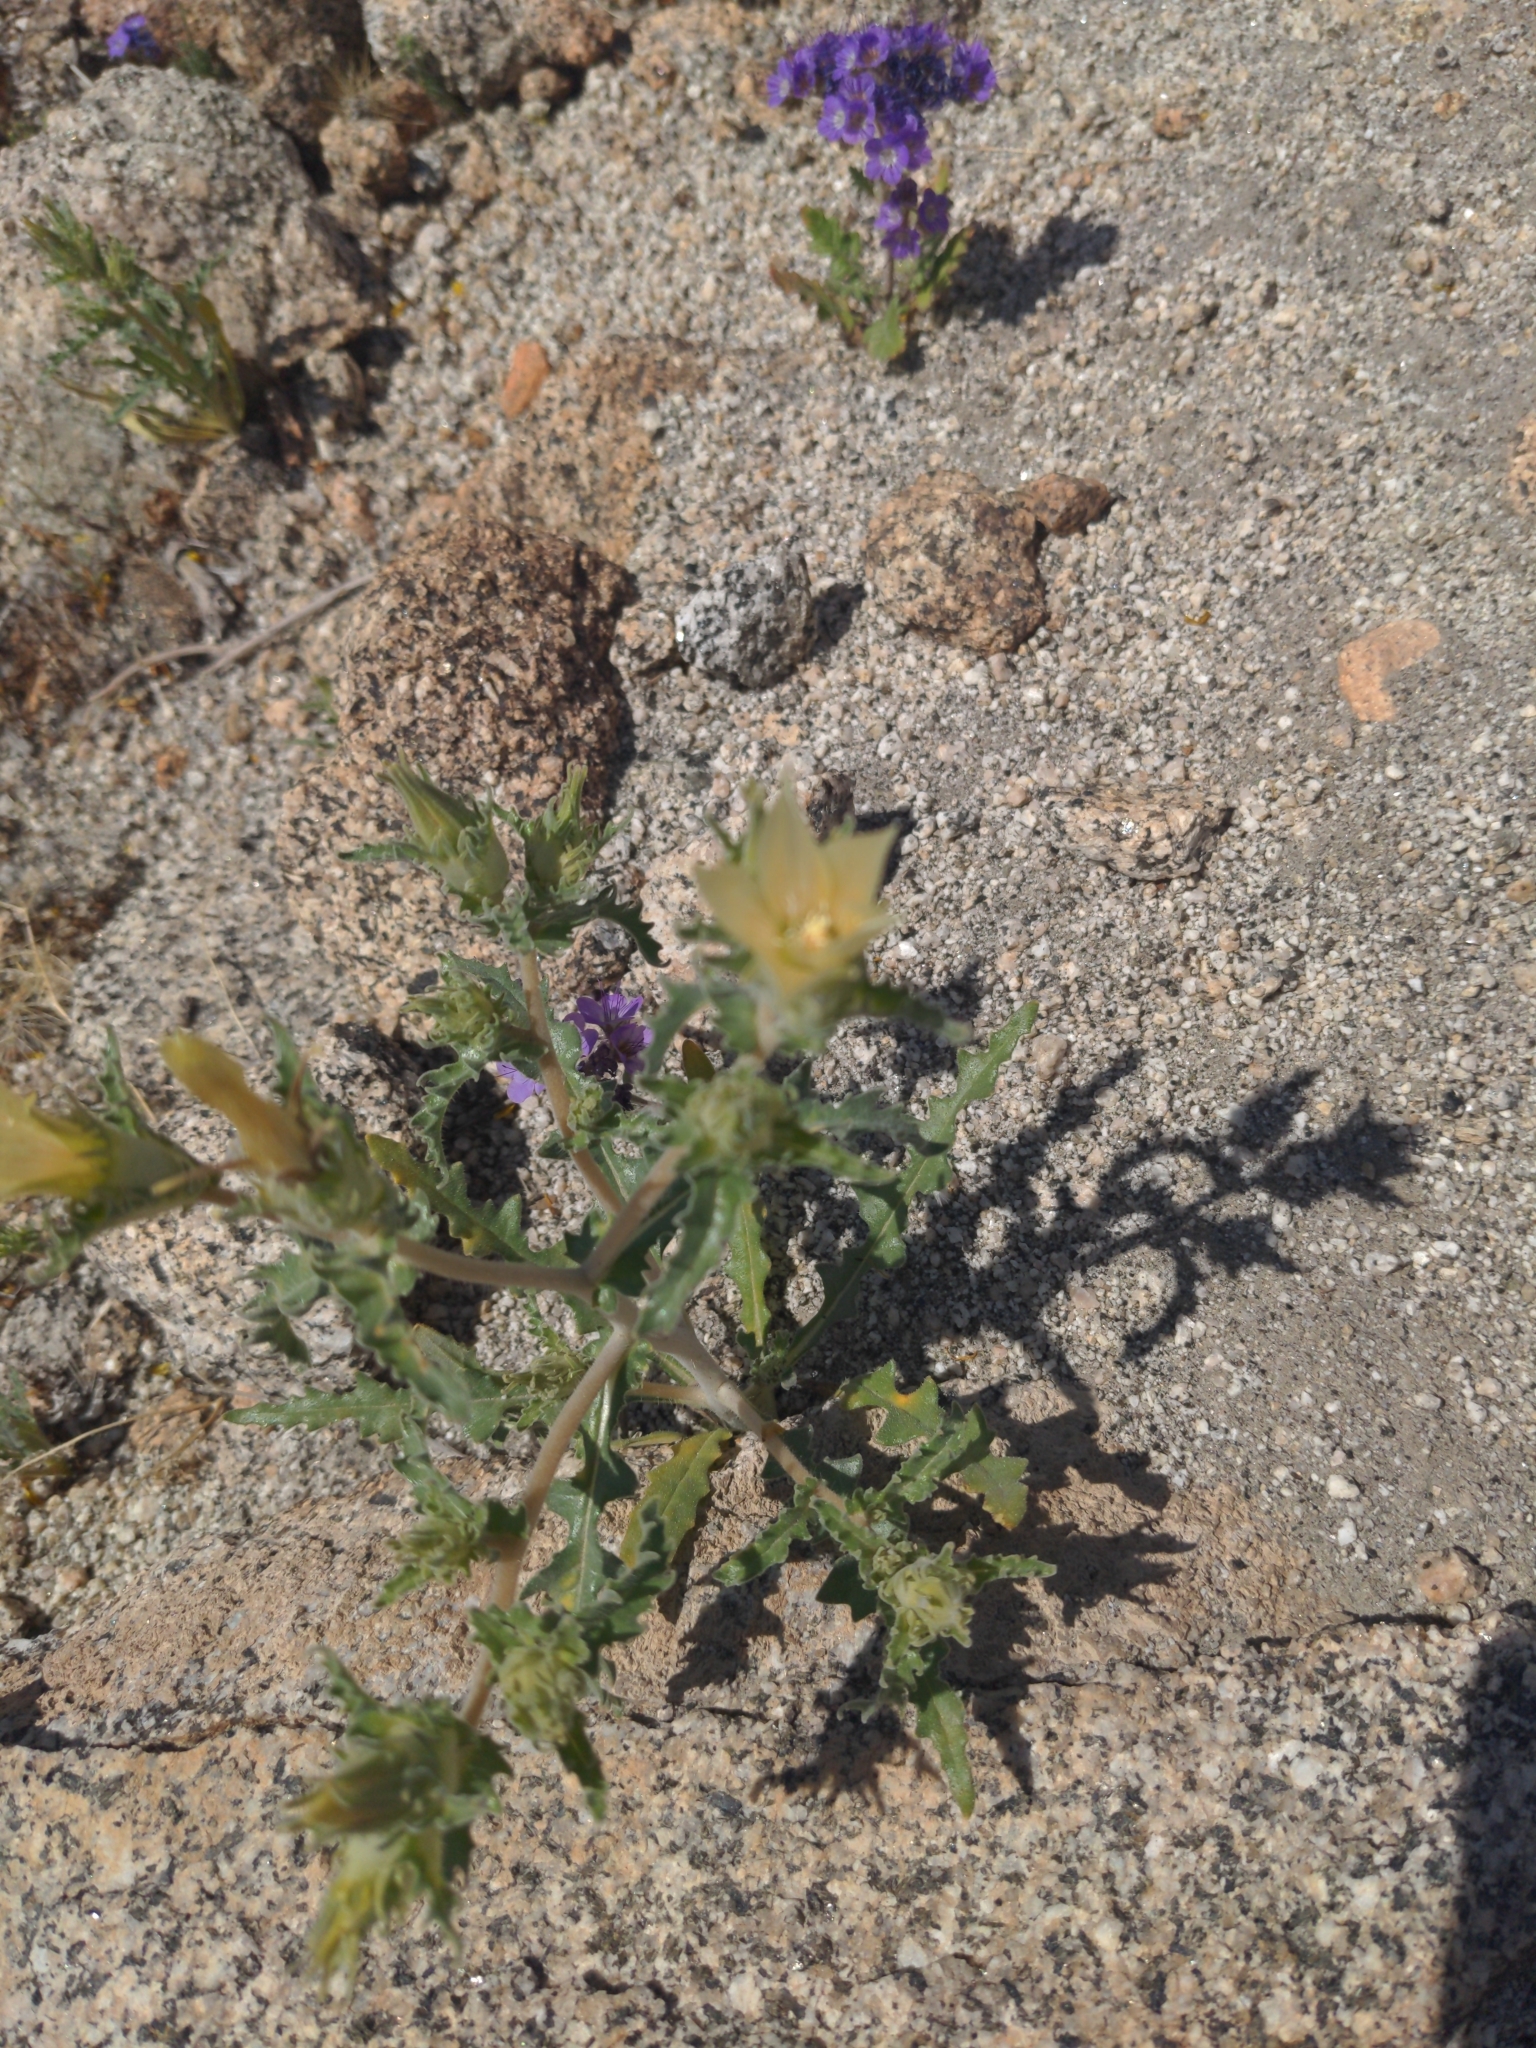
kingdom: Plantae
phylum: Tracheophyta
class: Magnoliopsida
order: Cornales
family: Loasaceae
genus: Mentzelia
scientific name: Mentzelia involucrata
